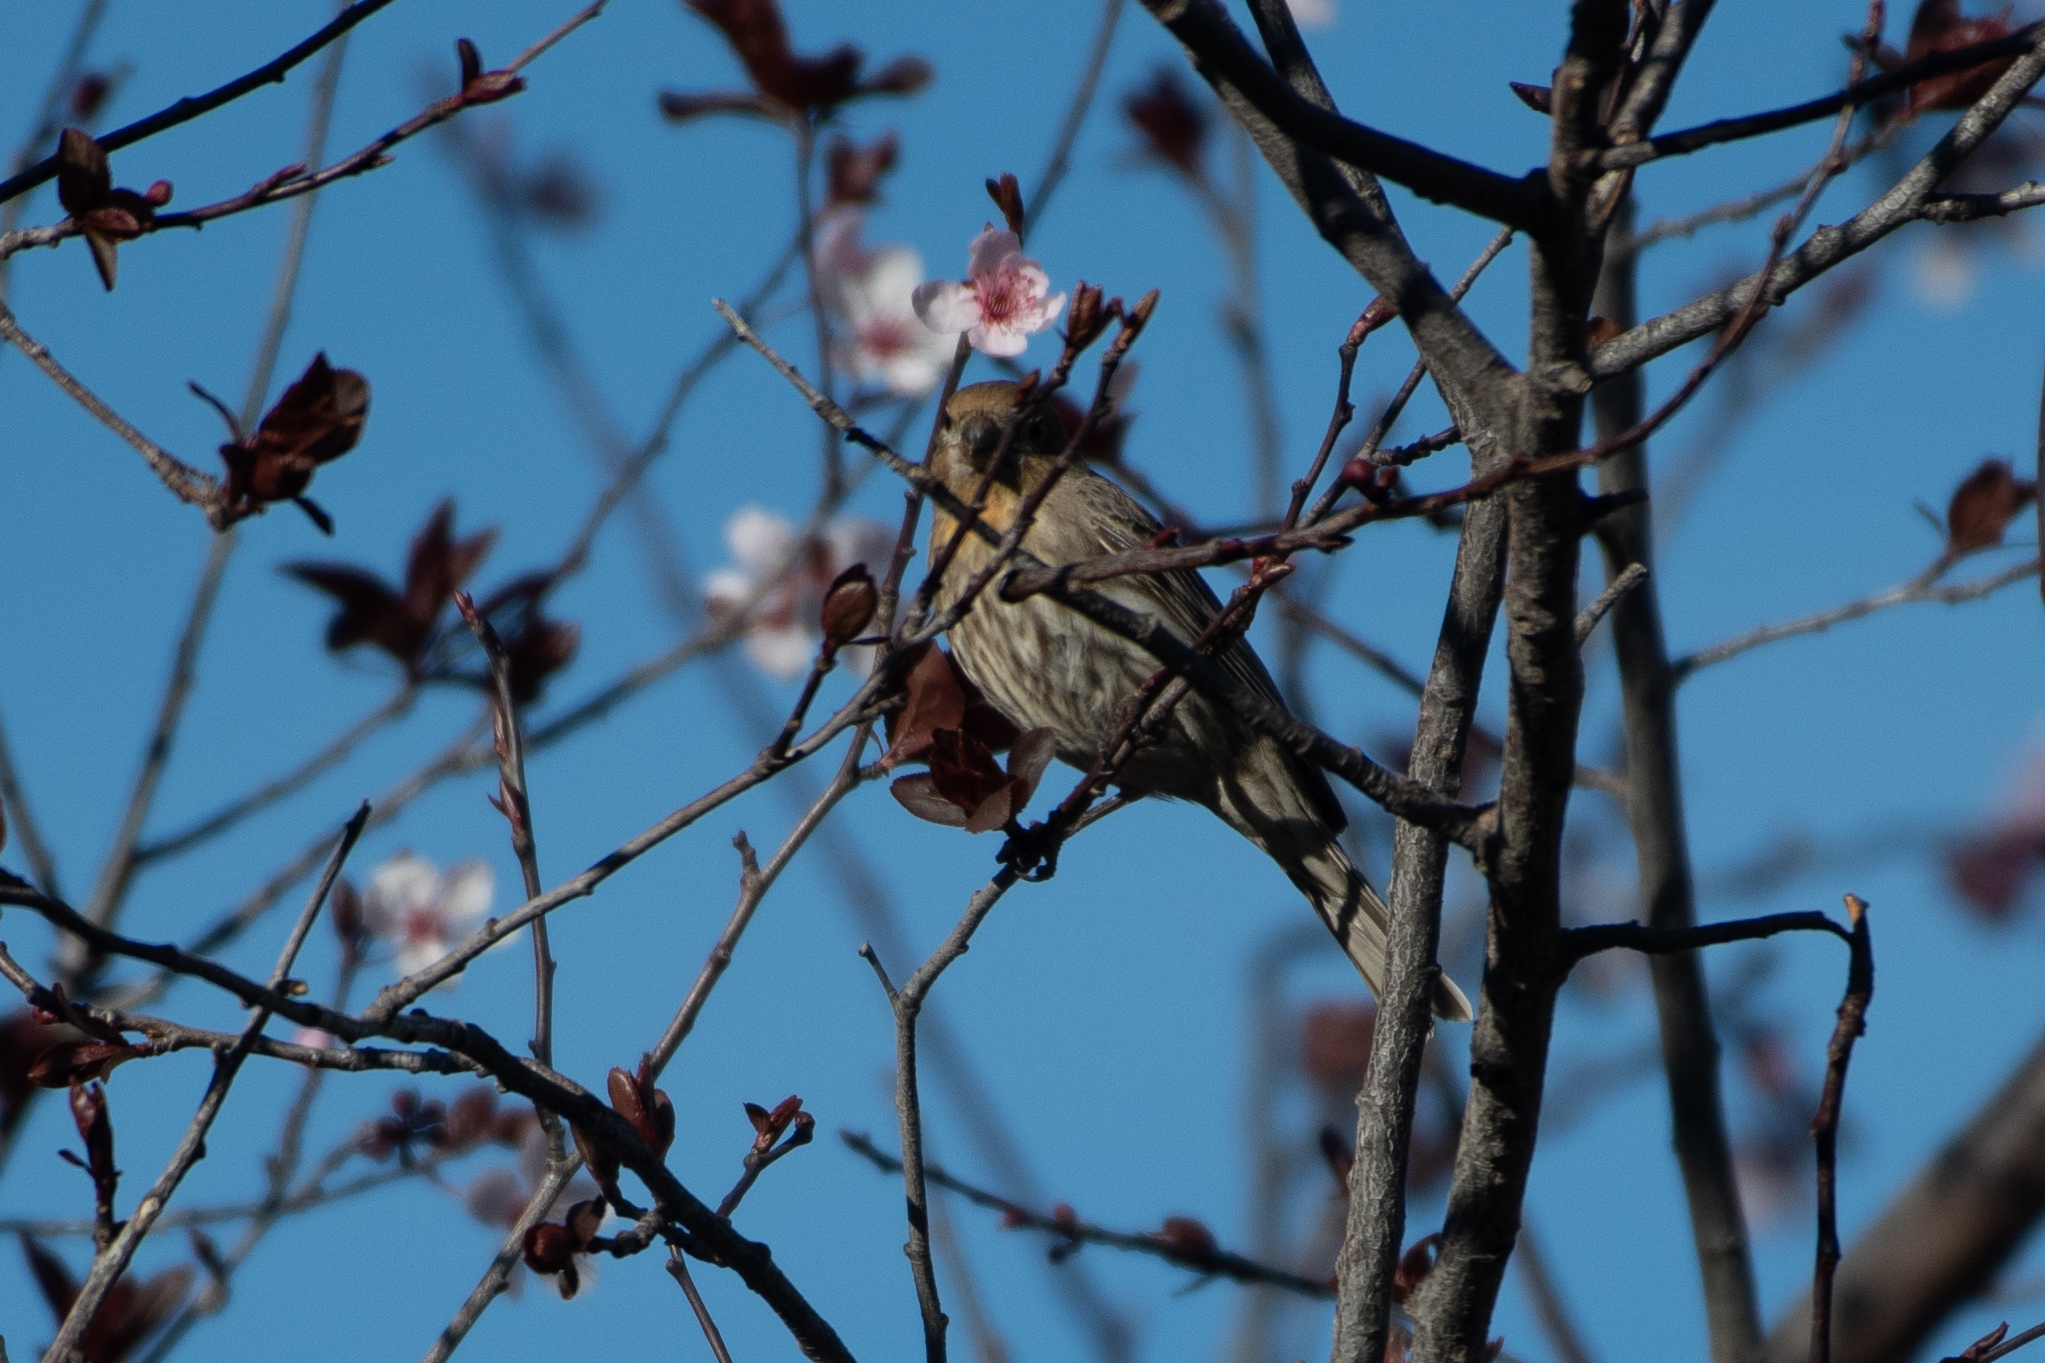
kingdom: Animalia
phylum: Chordata
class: Aves
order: Passeriformes
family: Fringillidae
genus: Haemorhous
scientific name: Haemorhous mexicanus
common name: House finch
